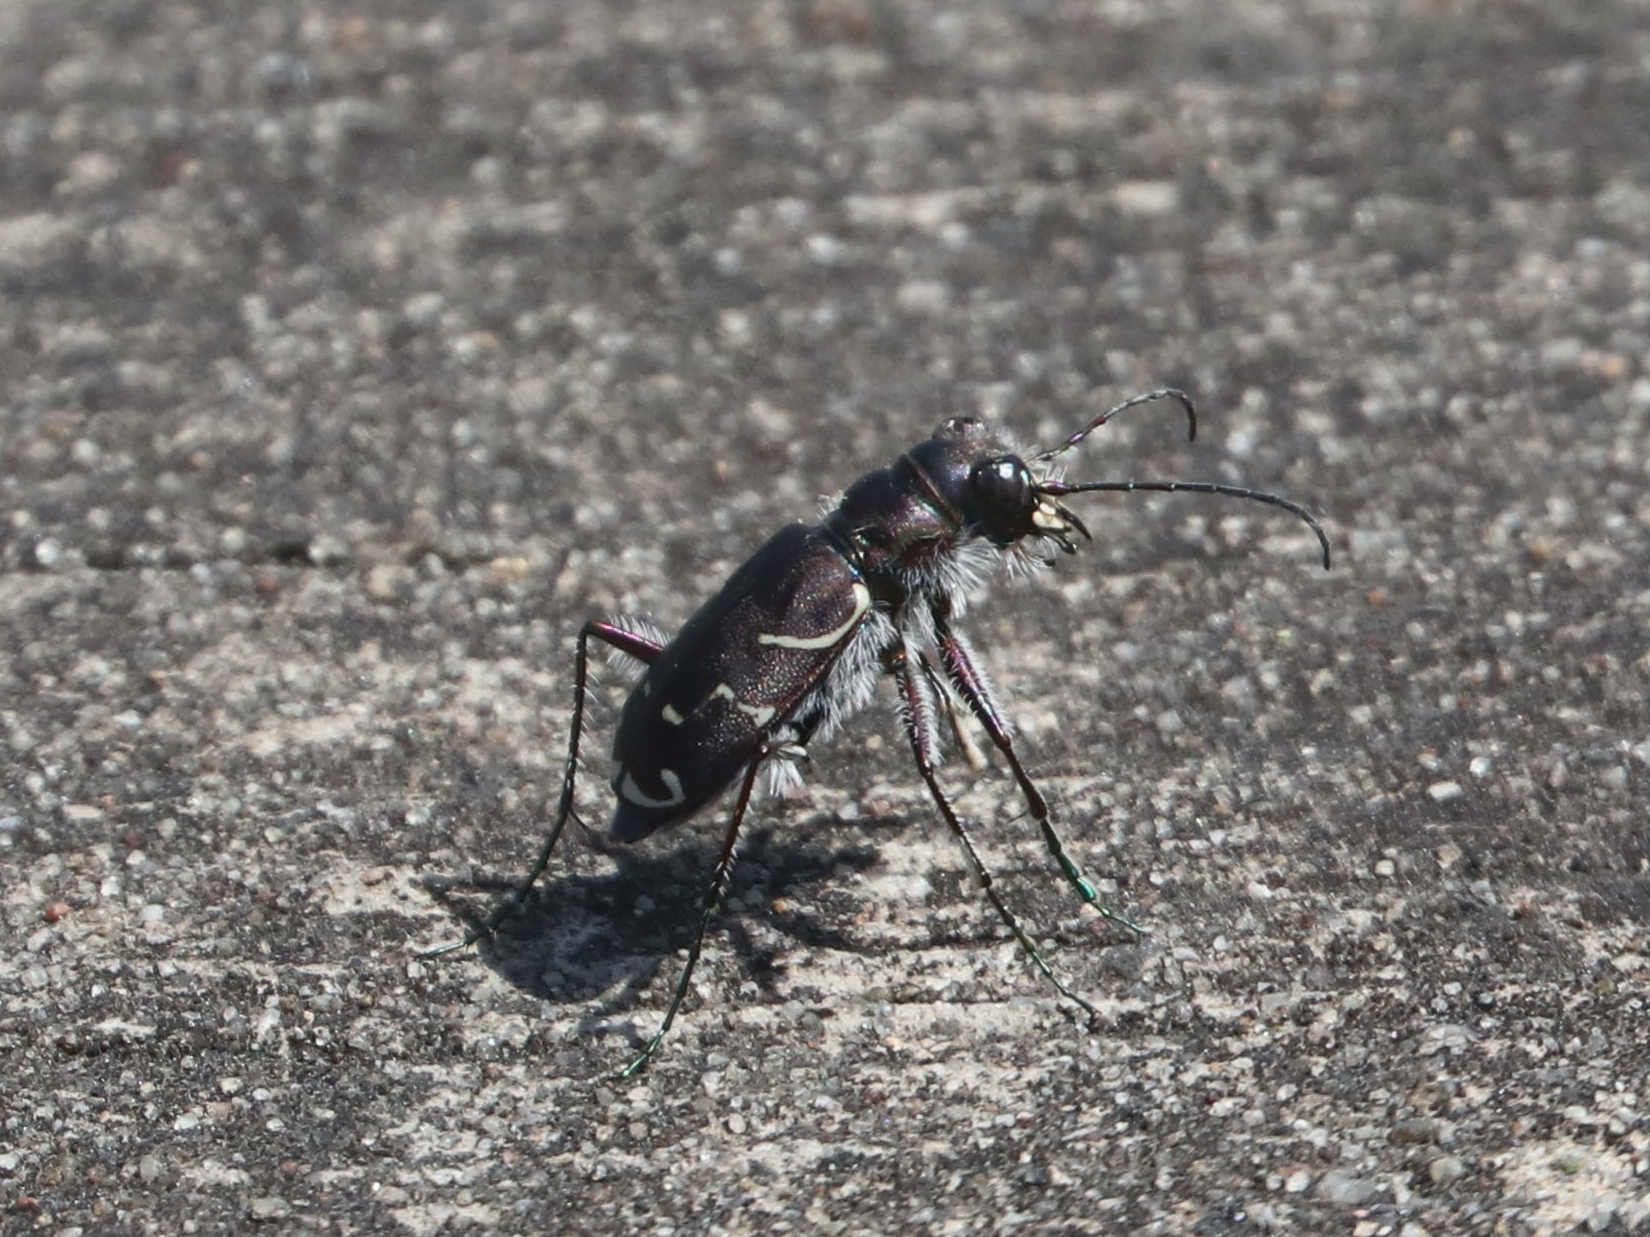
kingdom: Animalia
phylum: Arthropoda
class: Insecta
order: Coleoptera
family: Carabidae
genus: Cicindela
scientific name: Cicindela tranquebarica
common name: Oblique-lined tiger beetle
